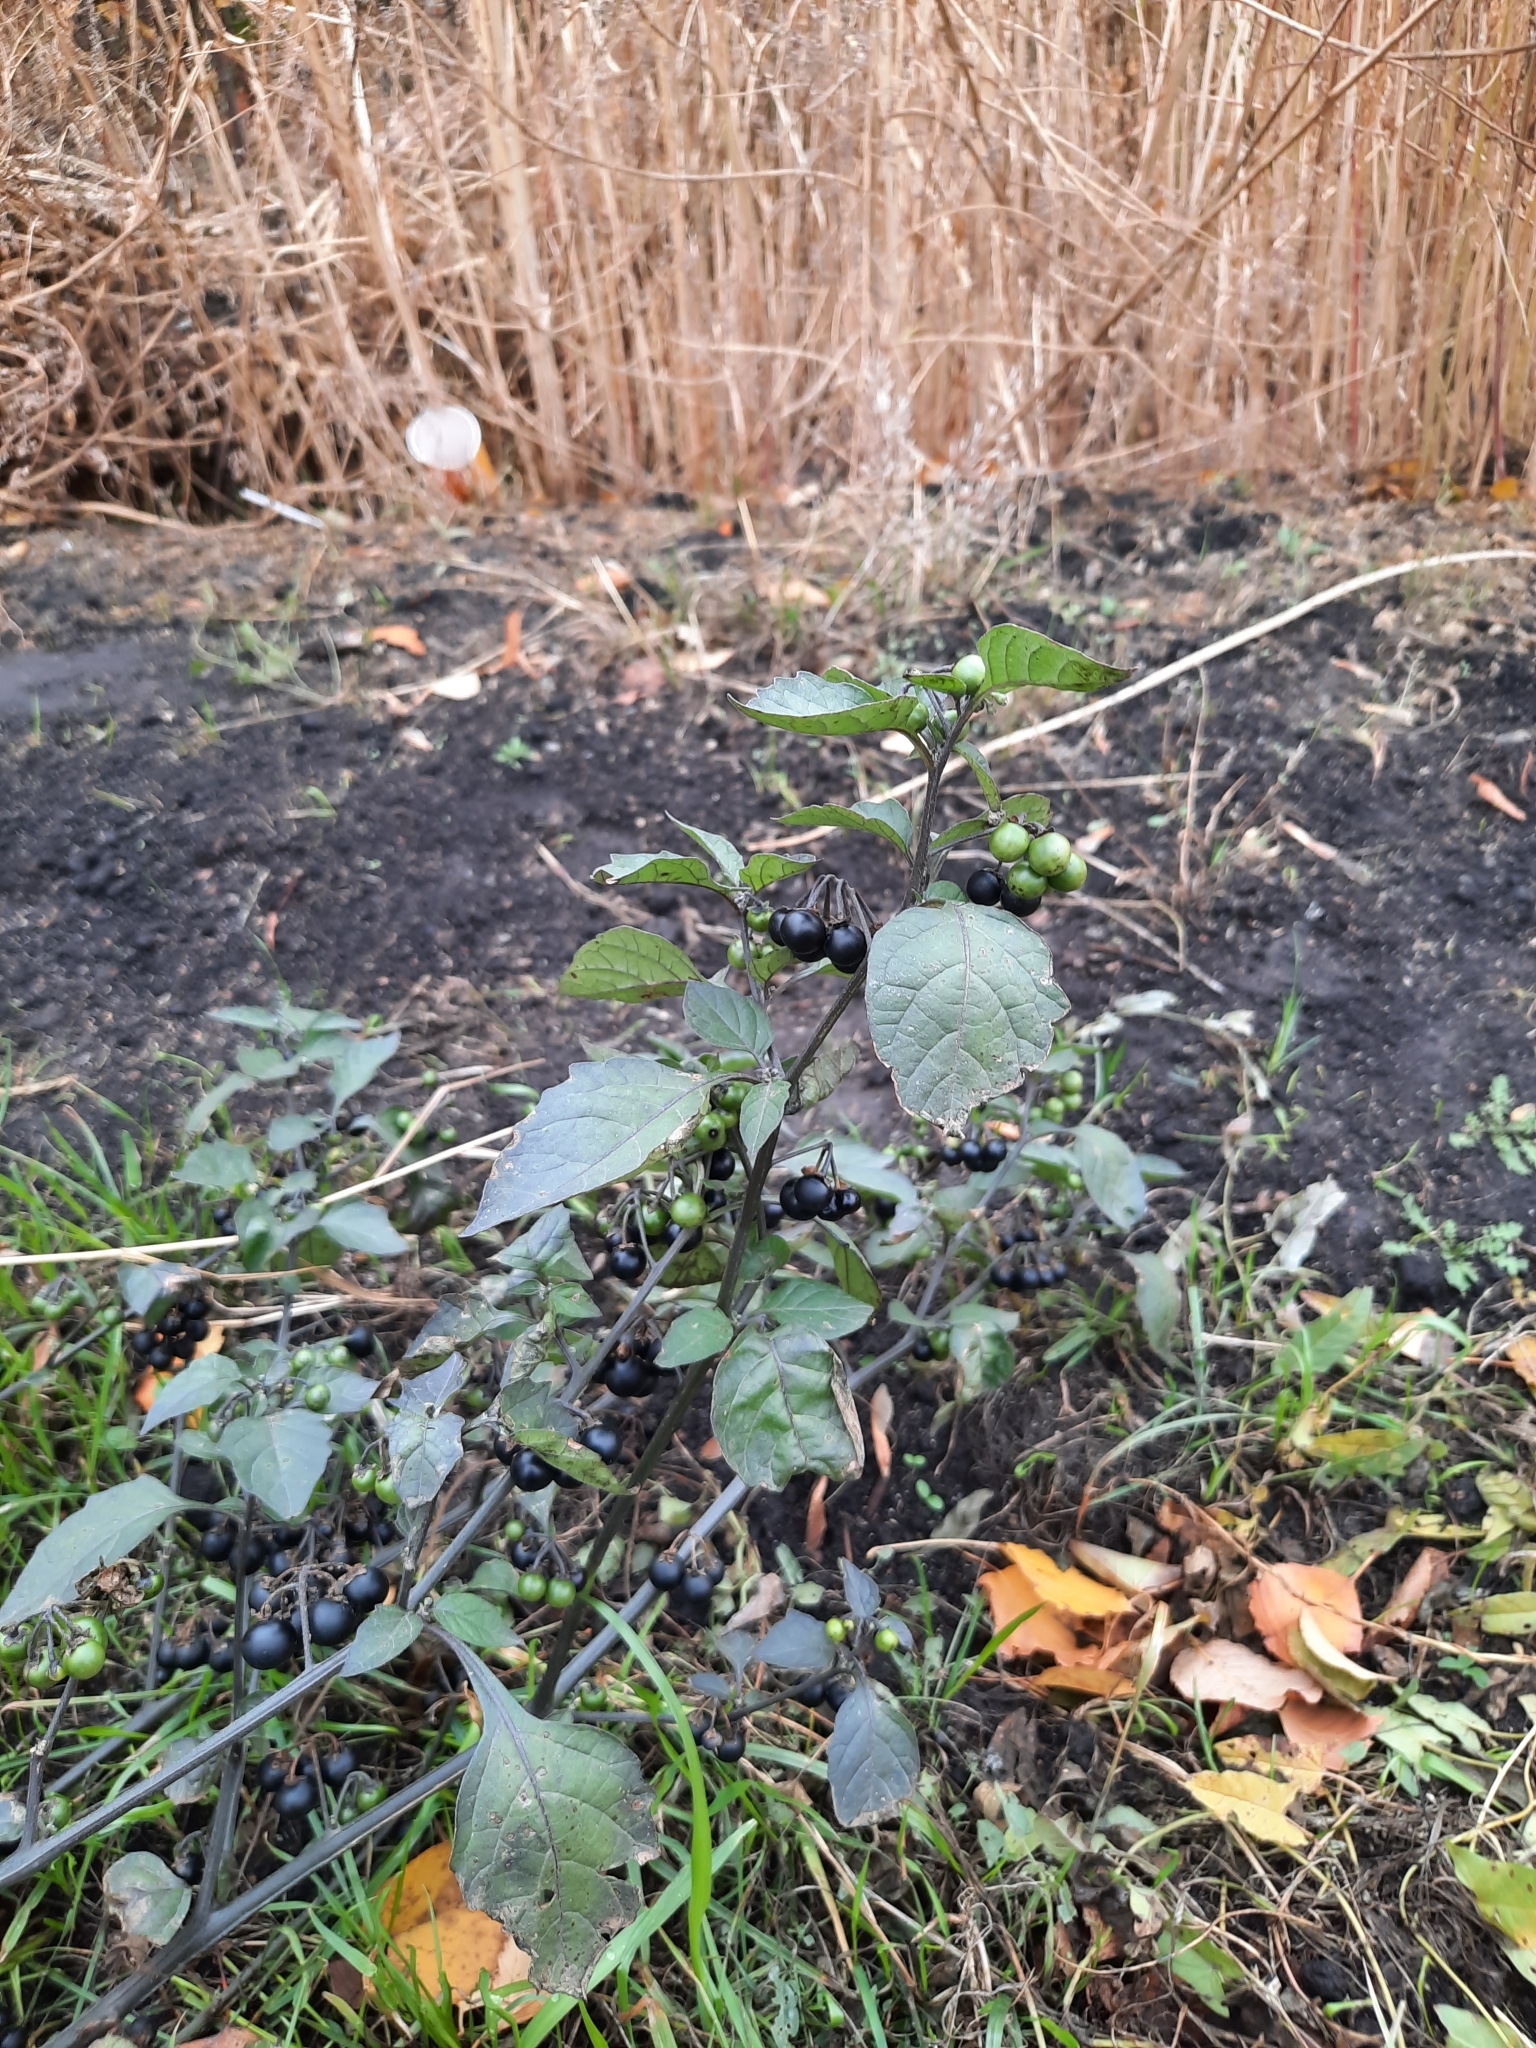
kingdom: Plantae
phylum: Tracheophyta
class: Magnoliopsida
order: Solanales
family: Solanaceae
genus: Solanum
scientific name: Solanum nigrum
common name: Black nightshade
